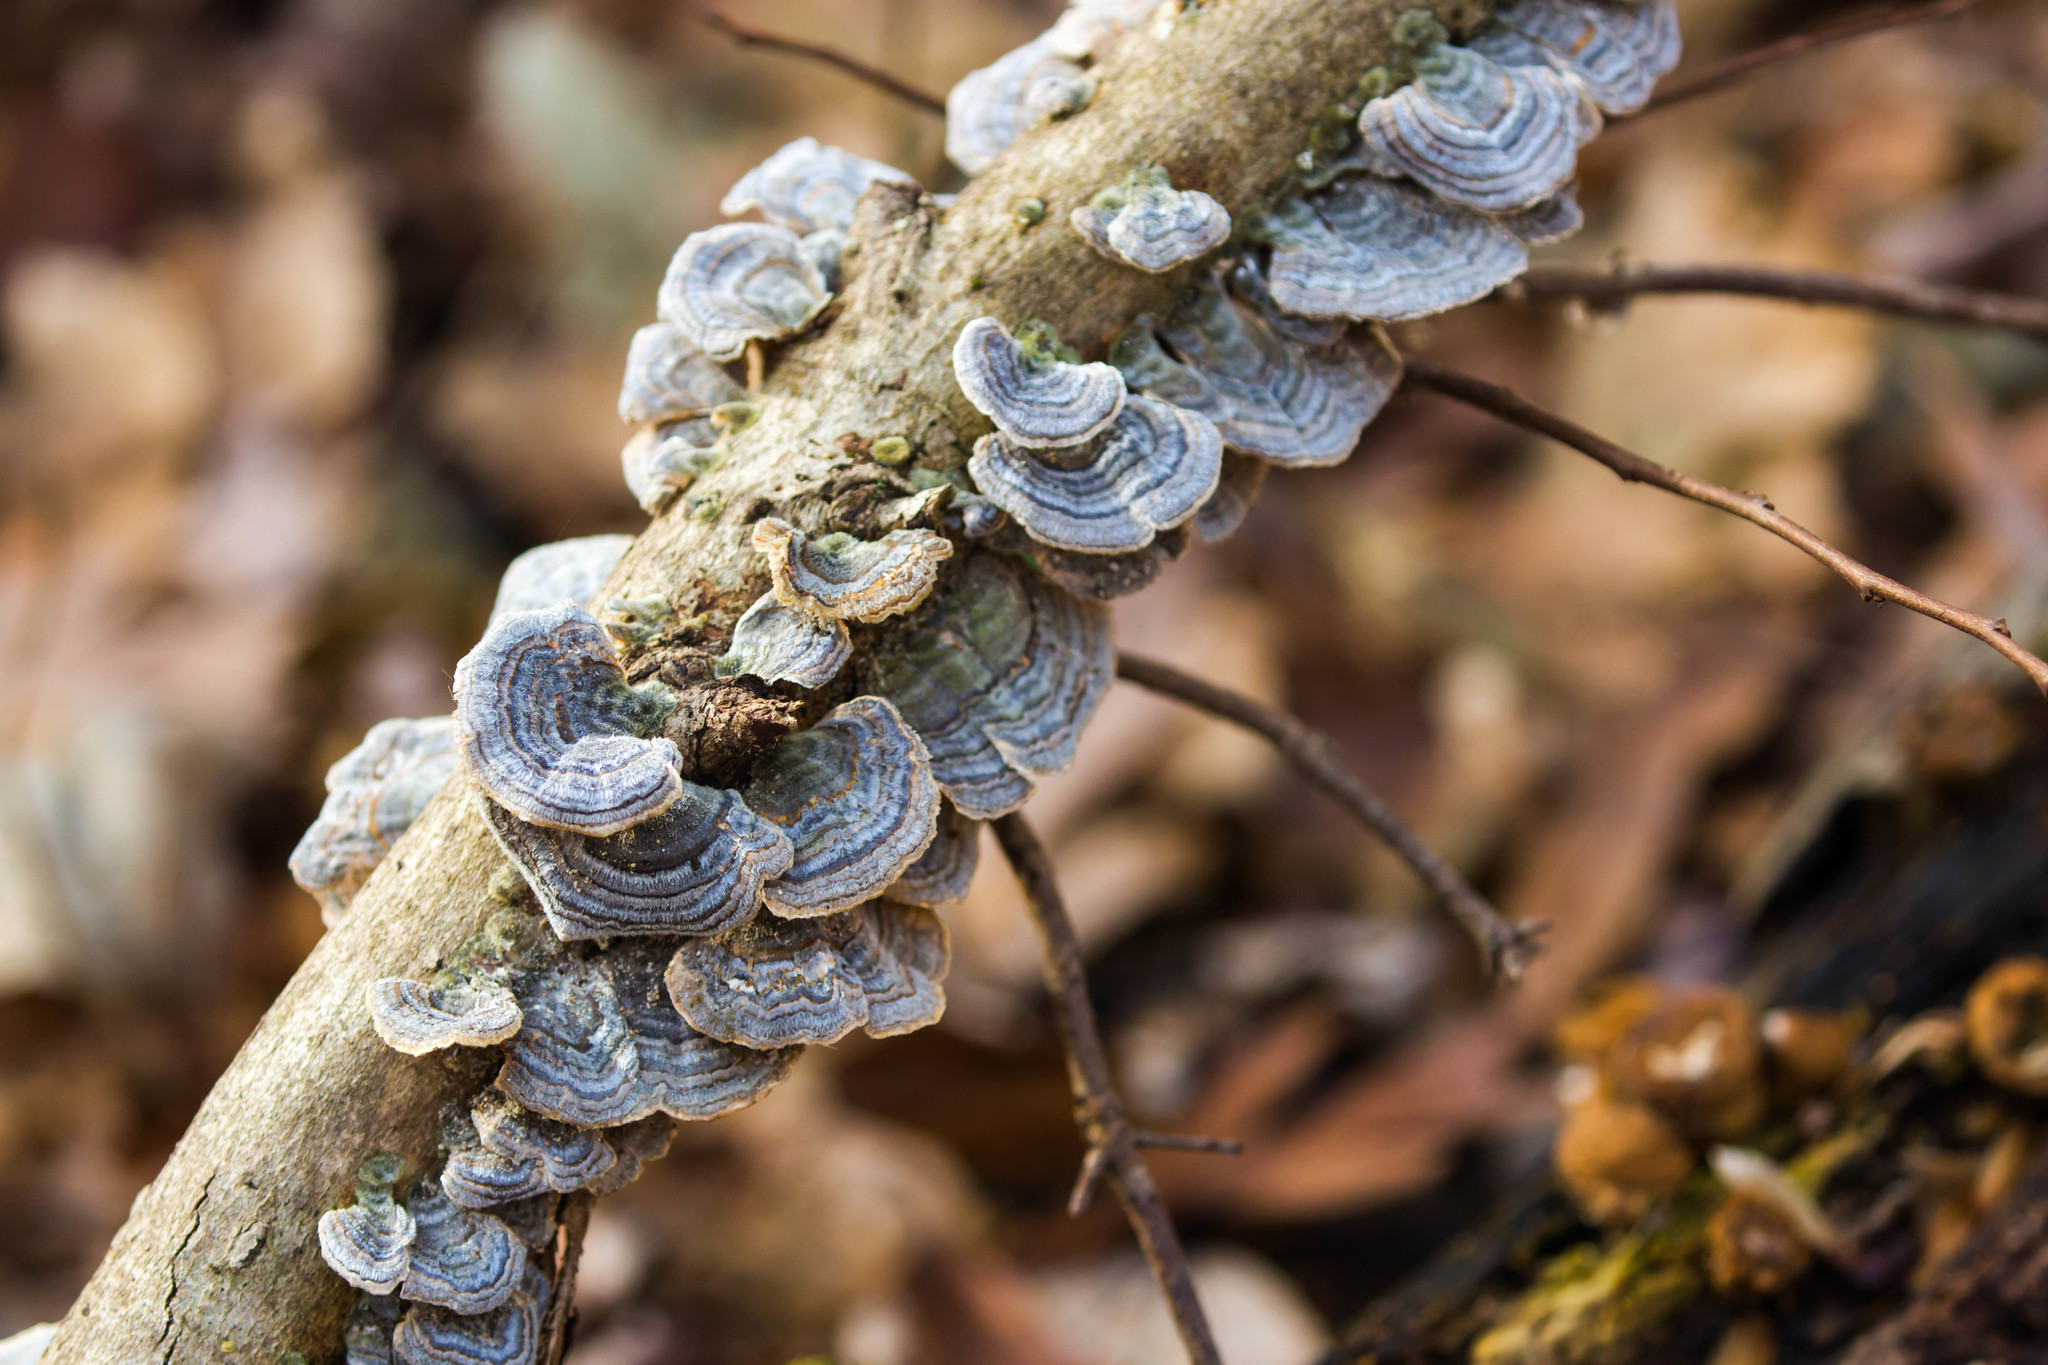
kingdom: Fungi
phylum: Basidiomycota
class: Agaricomycetes
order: Polyporales
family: Polyporaceae
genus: Trametes
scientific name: Trametes versicolor
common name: Turkeytail
